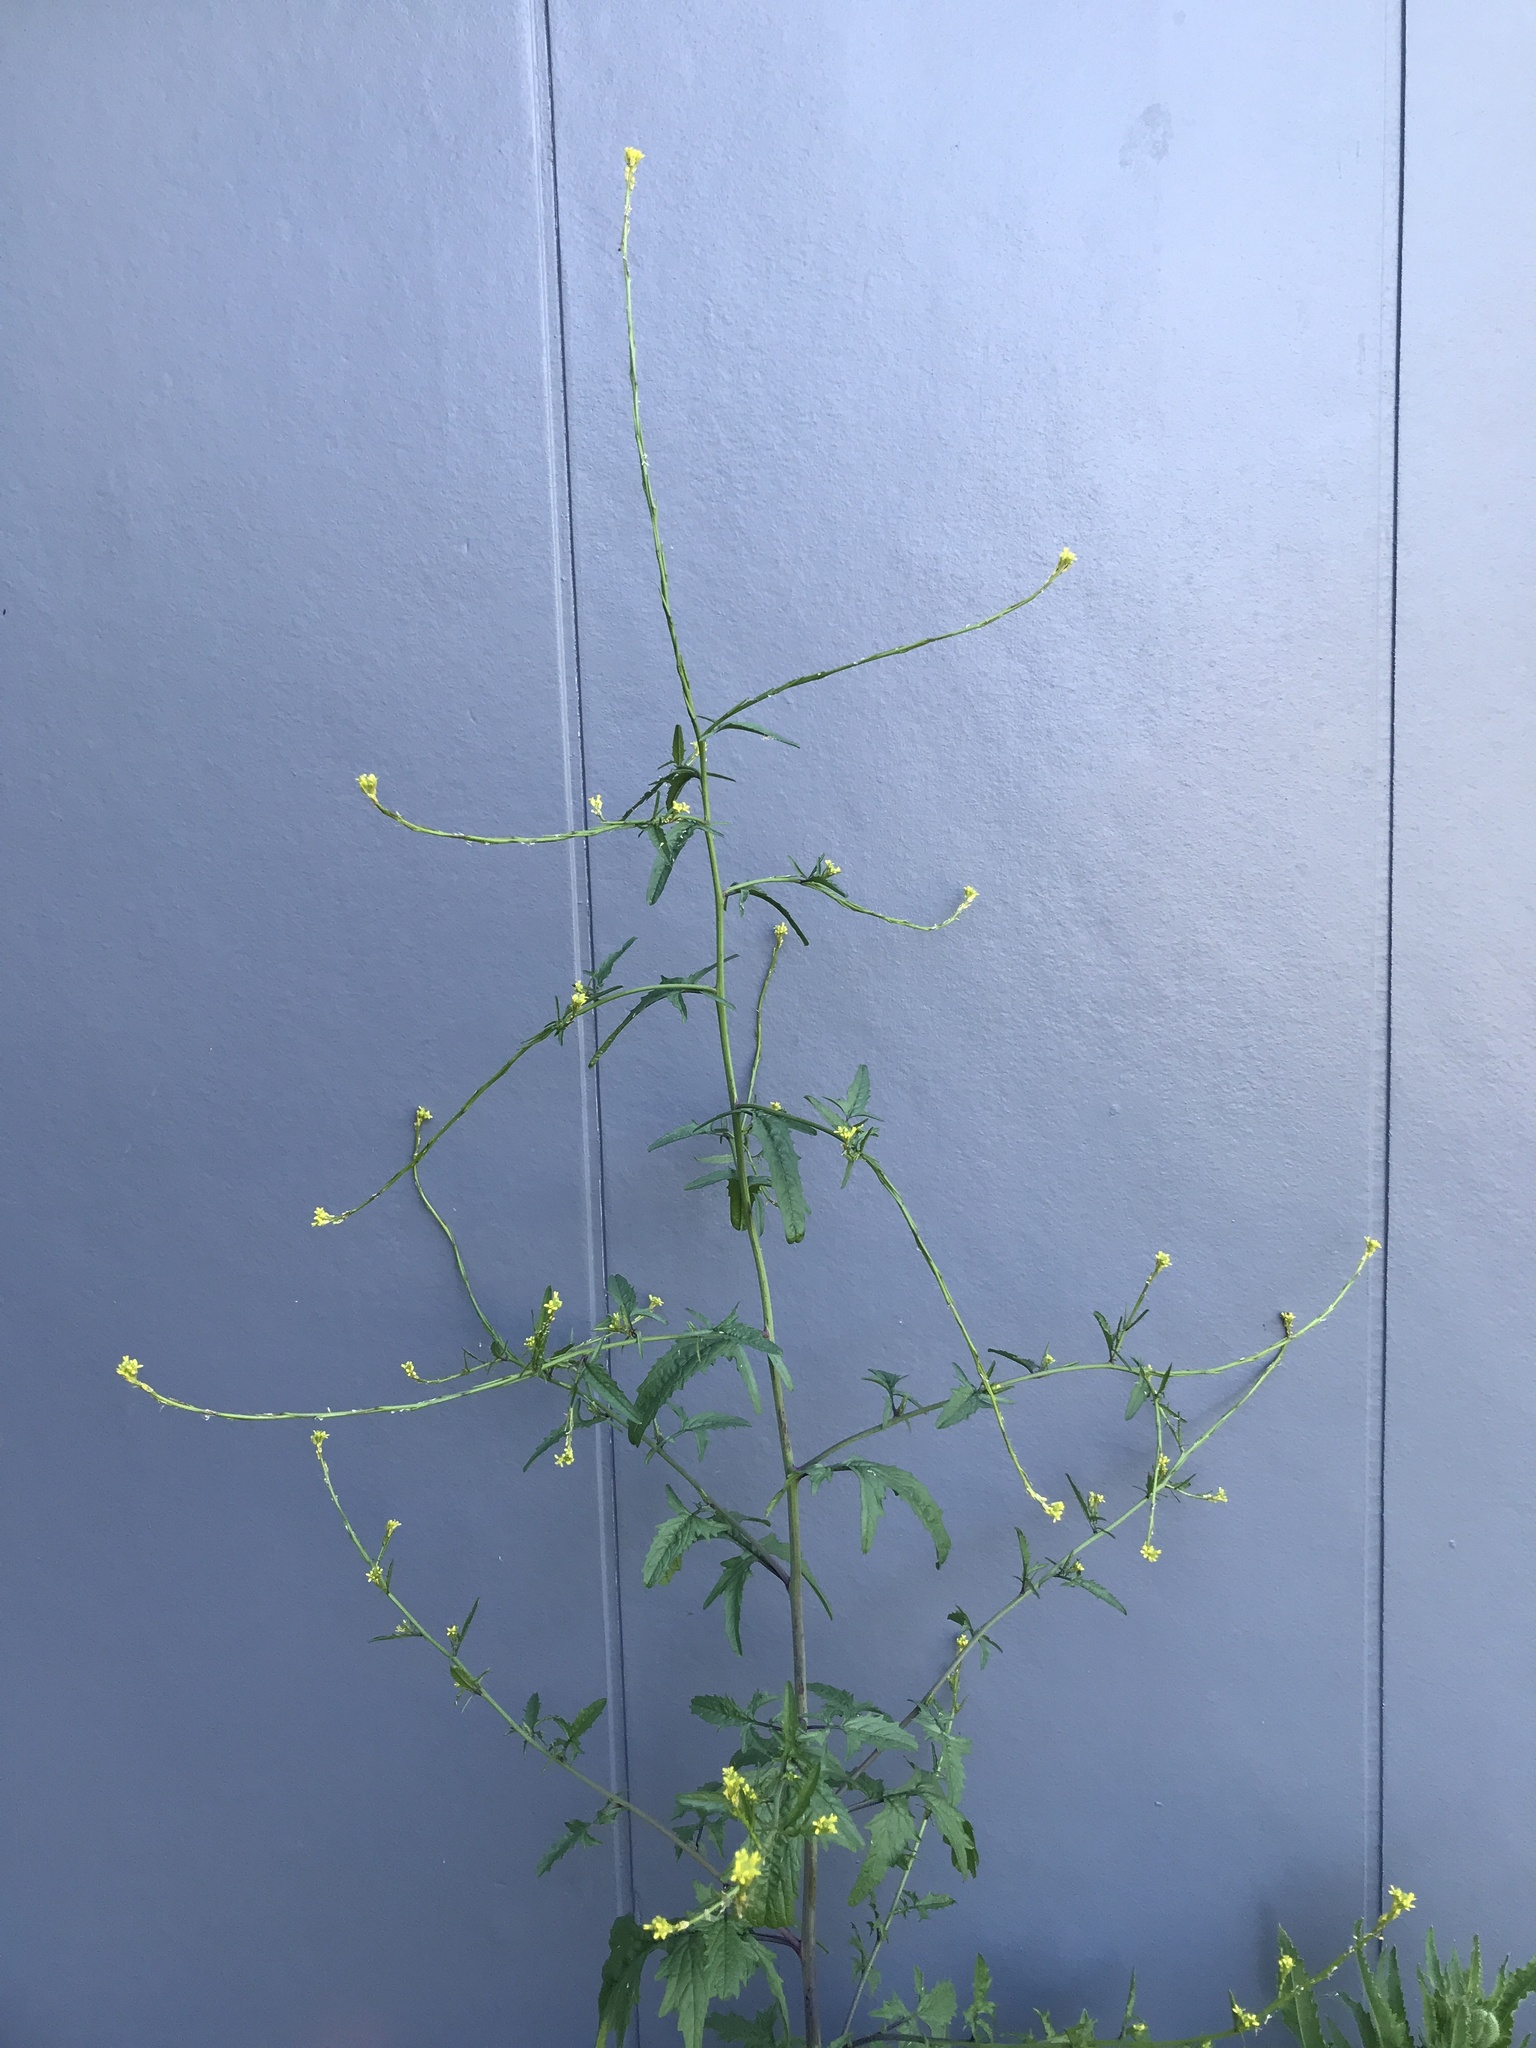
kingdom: Plantae
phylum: Tracheophyta
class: Magnoliopsida
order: Brassicales
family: Brassicaceae
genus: Sisymbrium
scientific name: Sisymbrium officinale
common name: Hedge mustard
